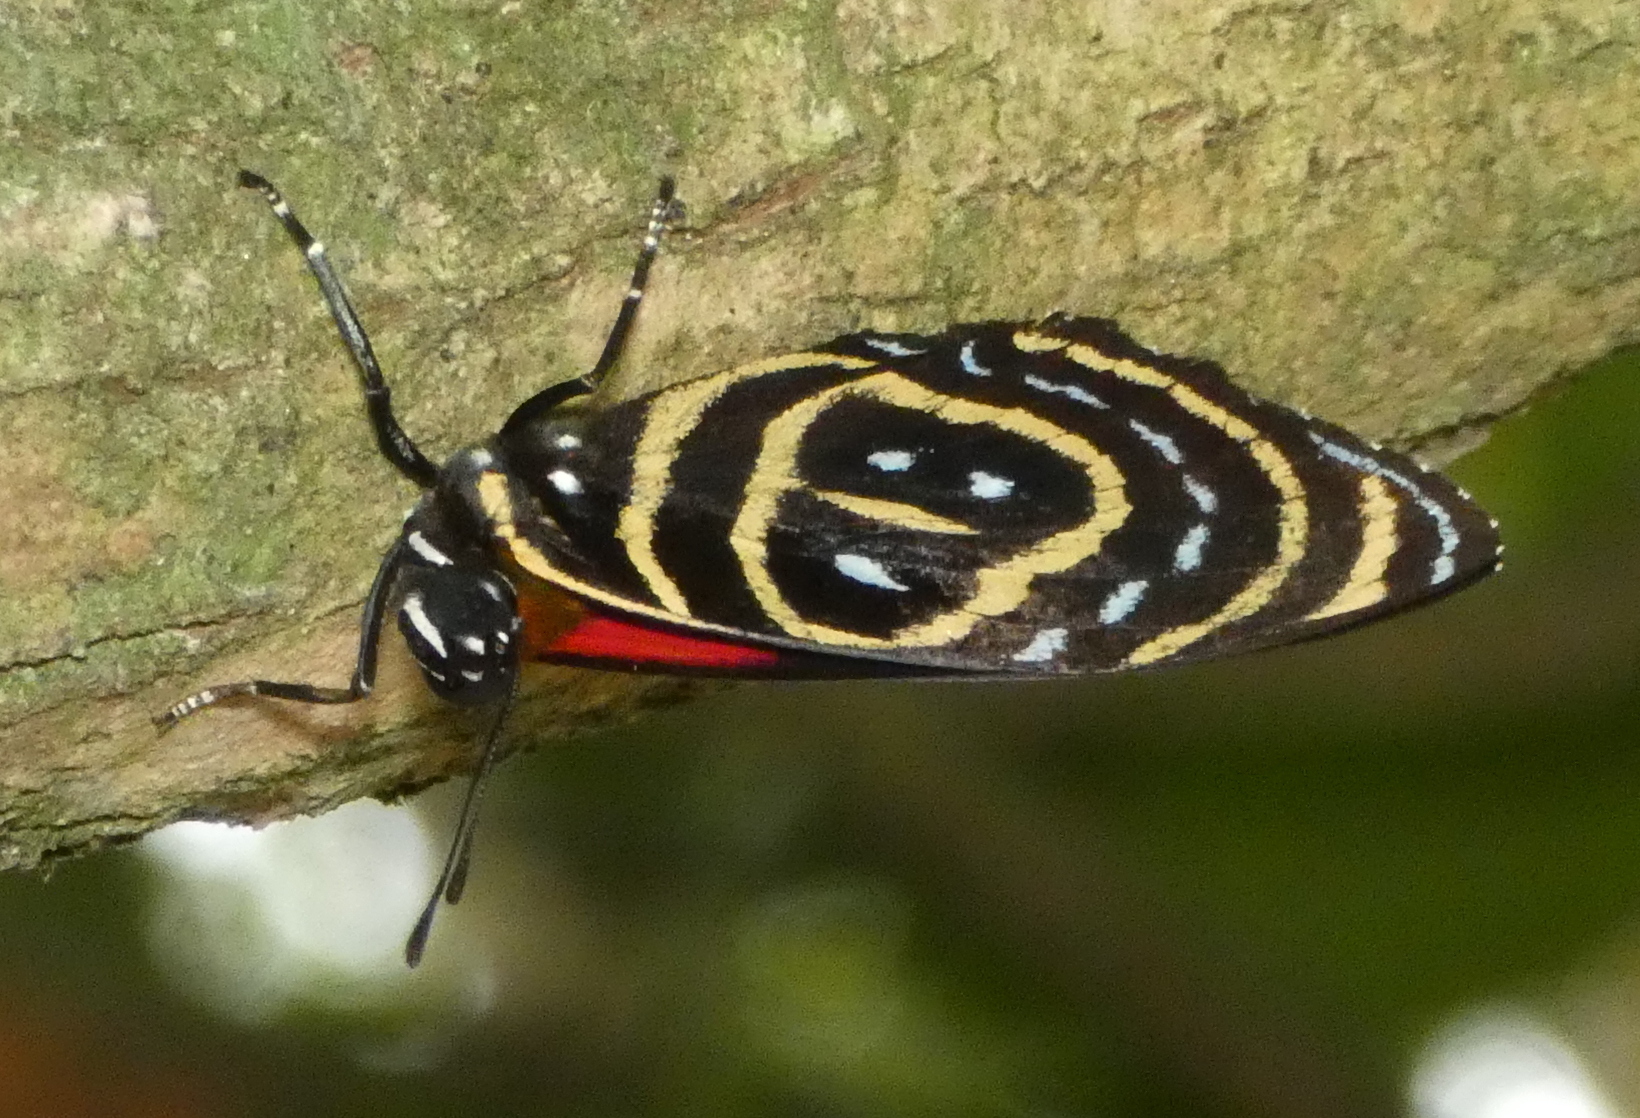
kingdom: Animalia
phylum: Arthropoda
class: Insecta
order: Lepidoptera
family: Nymphalidae
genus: Catagramma
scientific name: Catagramma astarte
